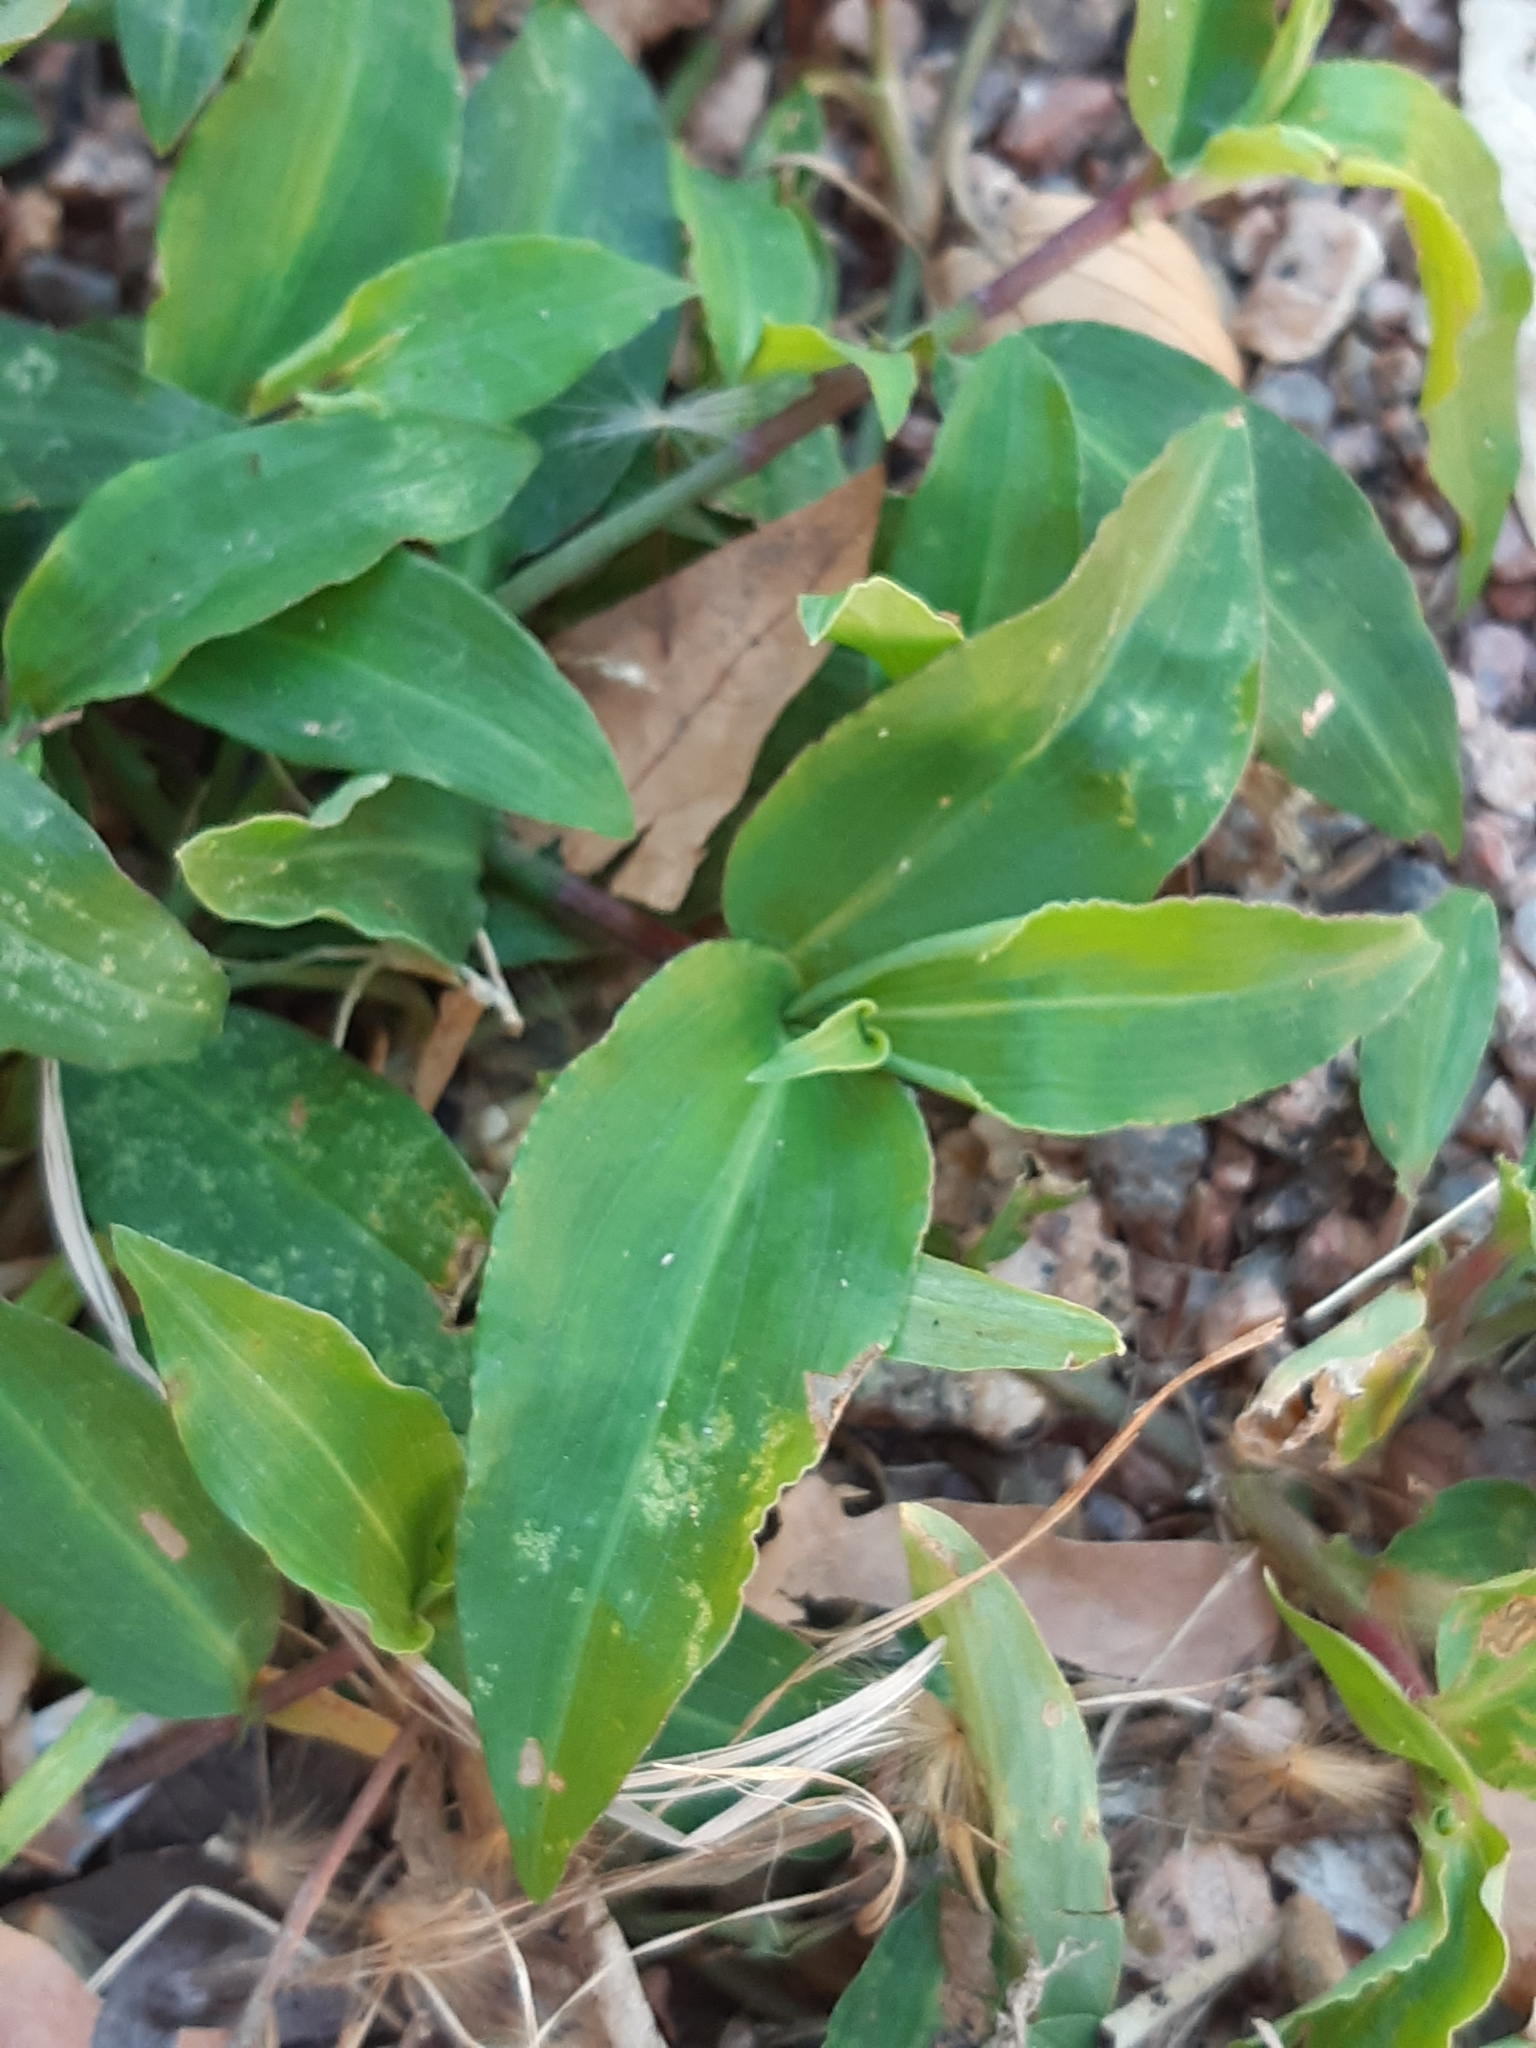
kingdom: Plantae
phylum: Tracheophyta
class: Liliopsida
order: Commelinales
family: Commelinaceae
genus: Commelina
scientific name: Commelina erecta
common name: Blousel blommetjie
